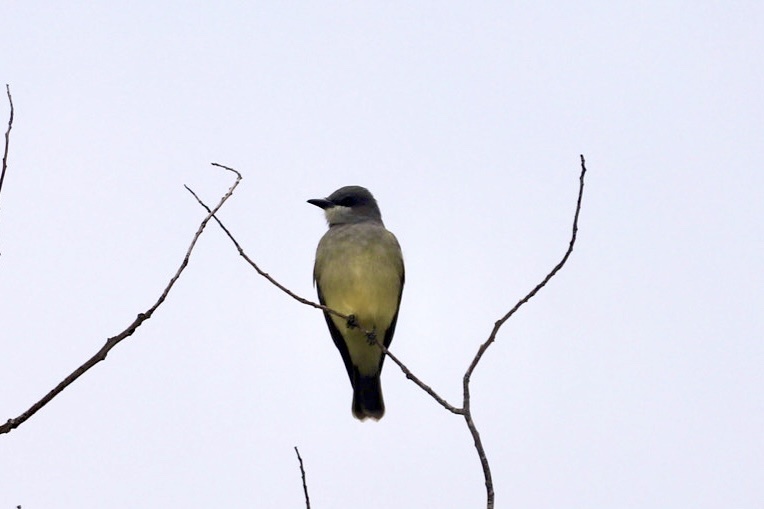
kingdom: Animalia
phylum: Chordata
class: Aves
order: Passeriformes
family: Tyrannidae
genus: Tyrannus
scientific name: Tyrannus vociferans
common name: Cassin's kingbird
